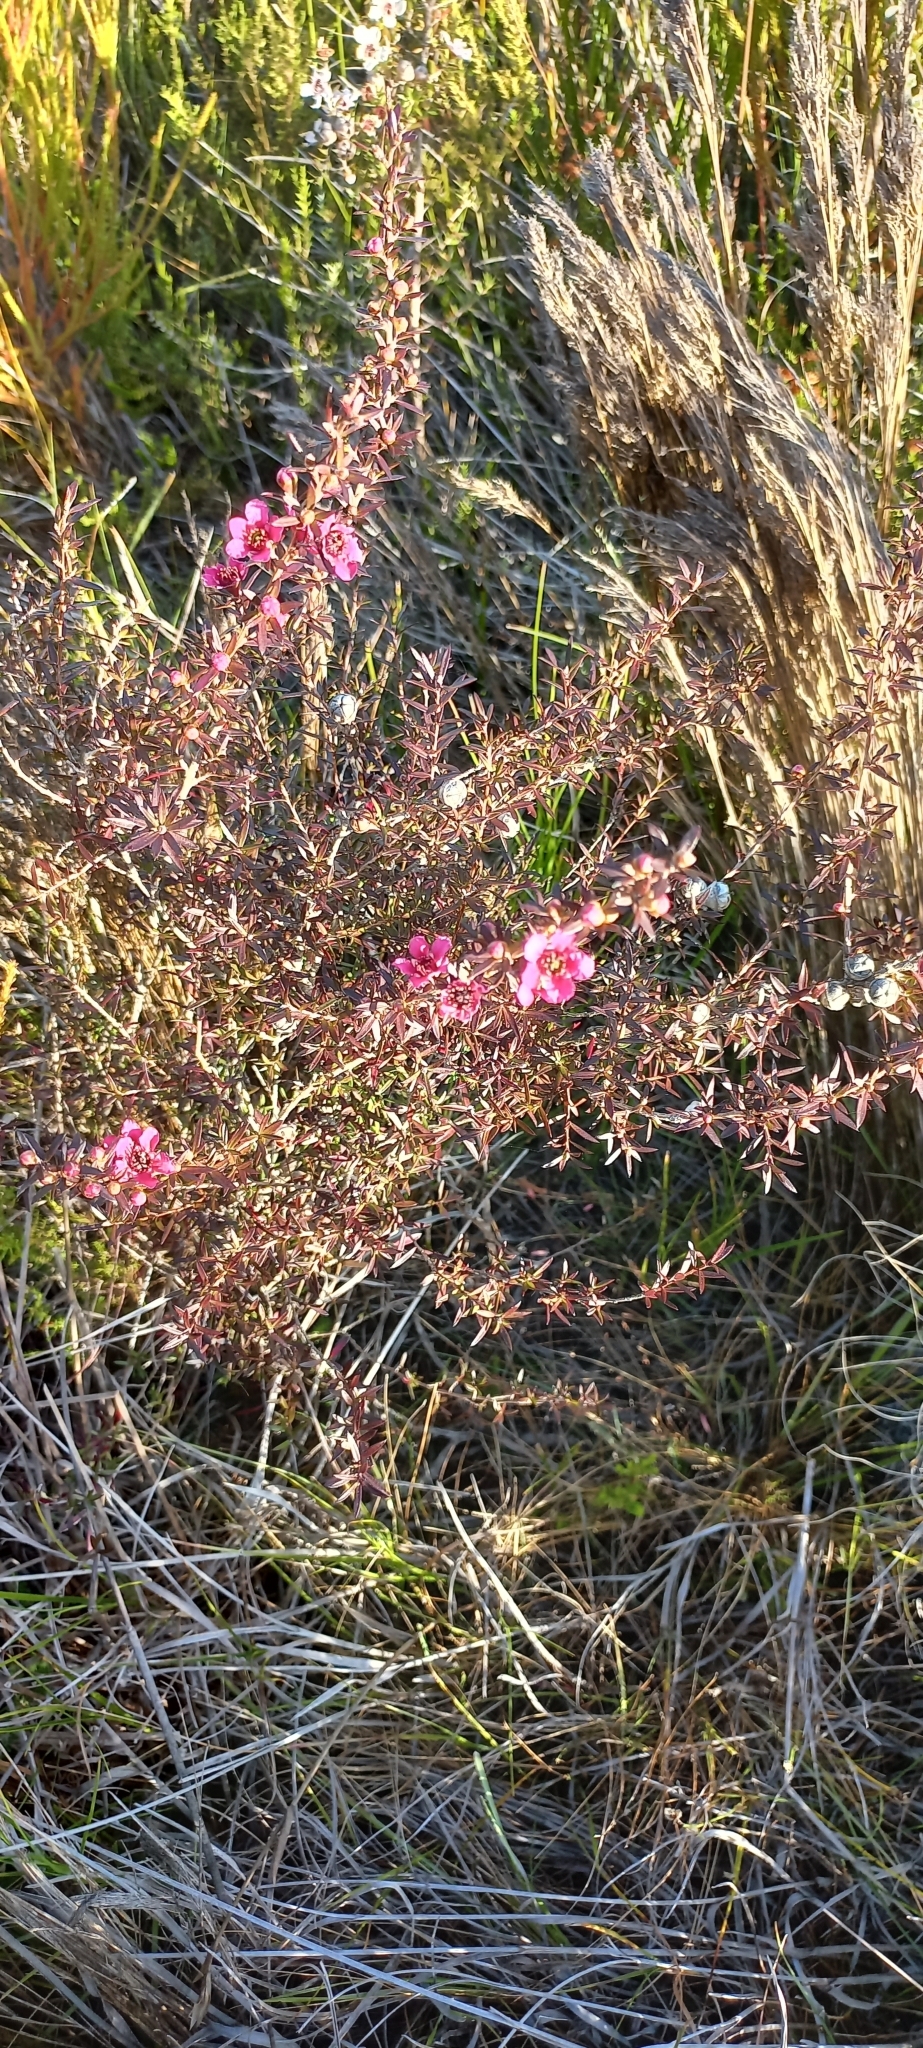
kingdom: Plantae
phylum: Tracheophyta
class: Magnoliopsida
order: Myrtales
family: Myrtaceae
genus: Leptospermum
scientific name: Leptospermum scoparium
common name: Broom tea-tree
